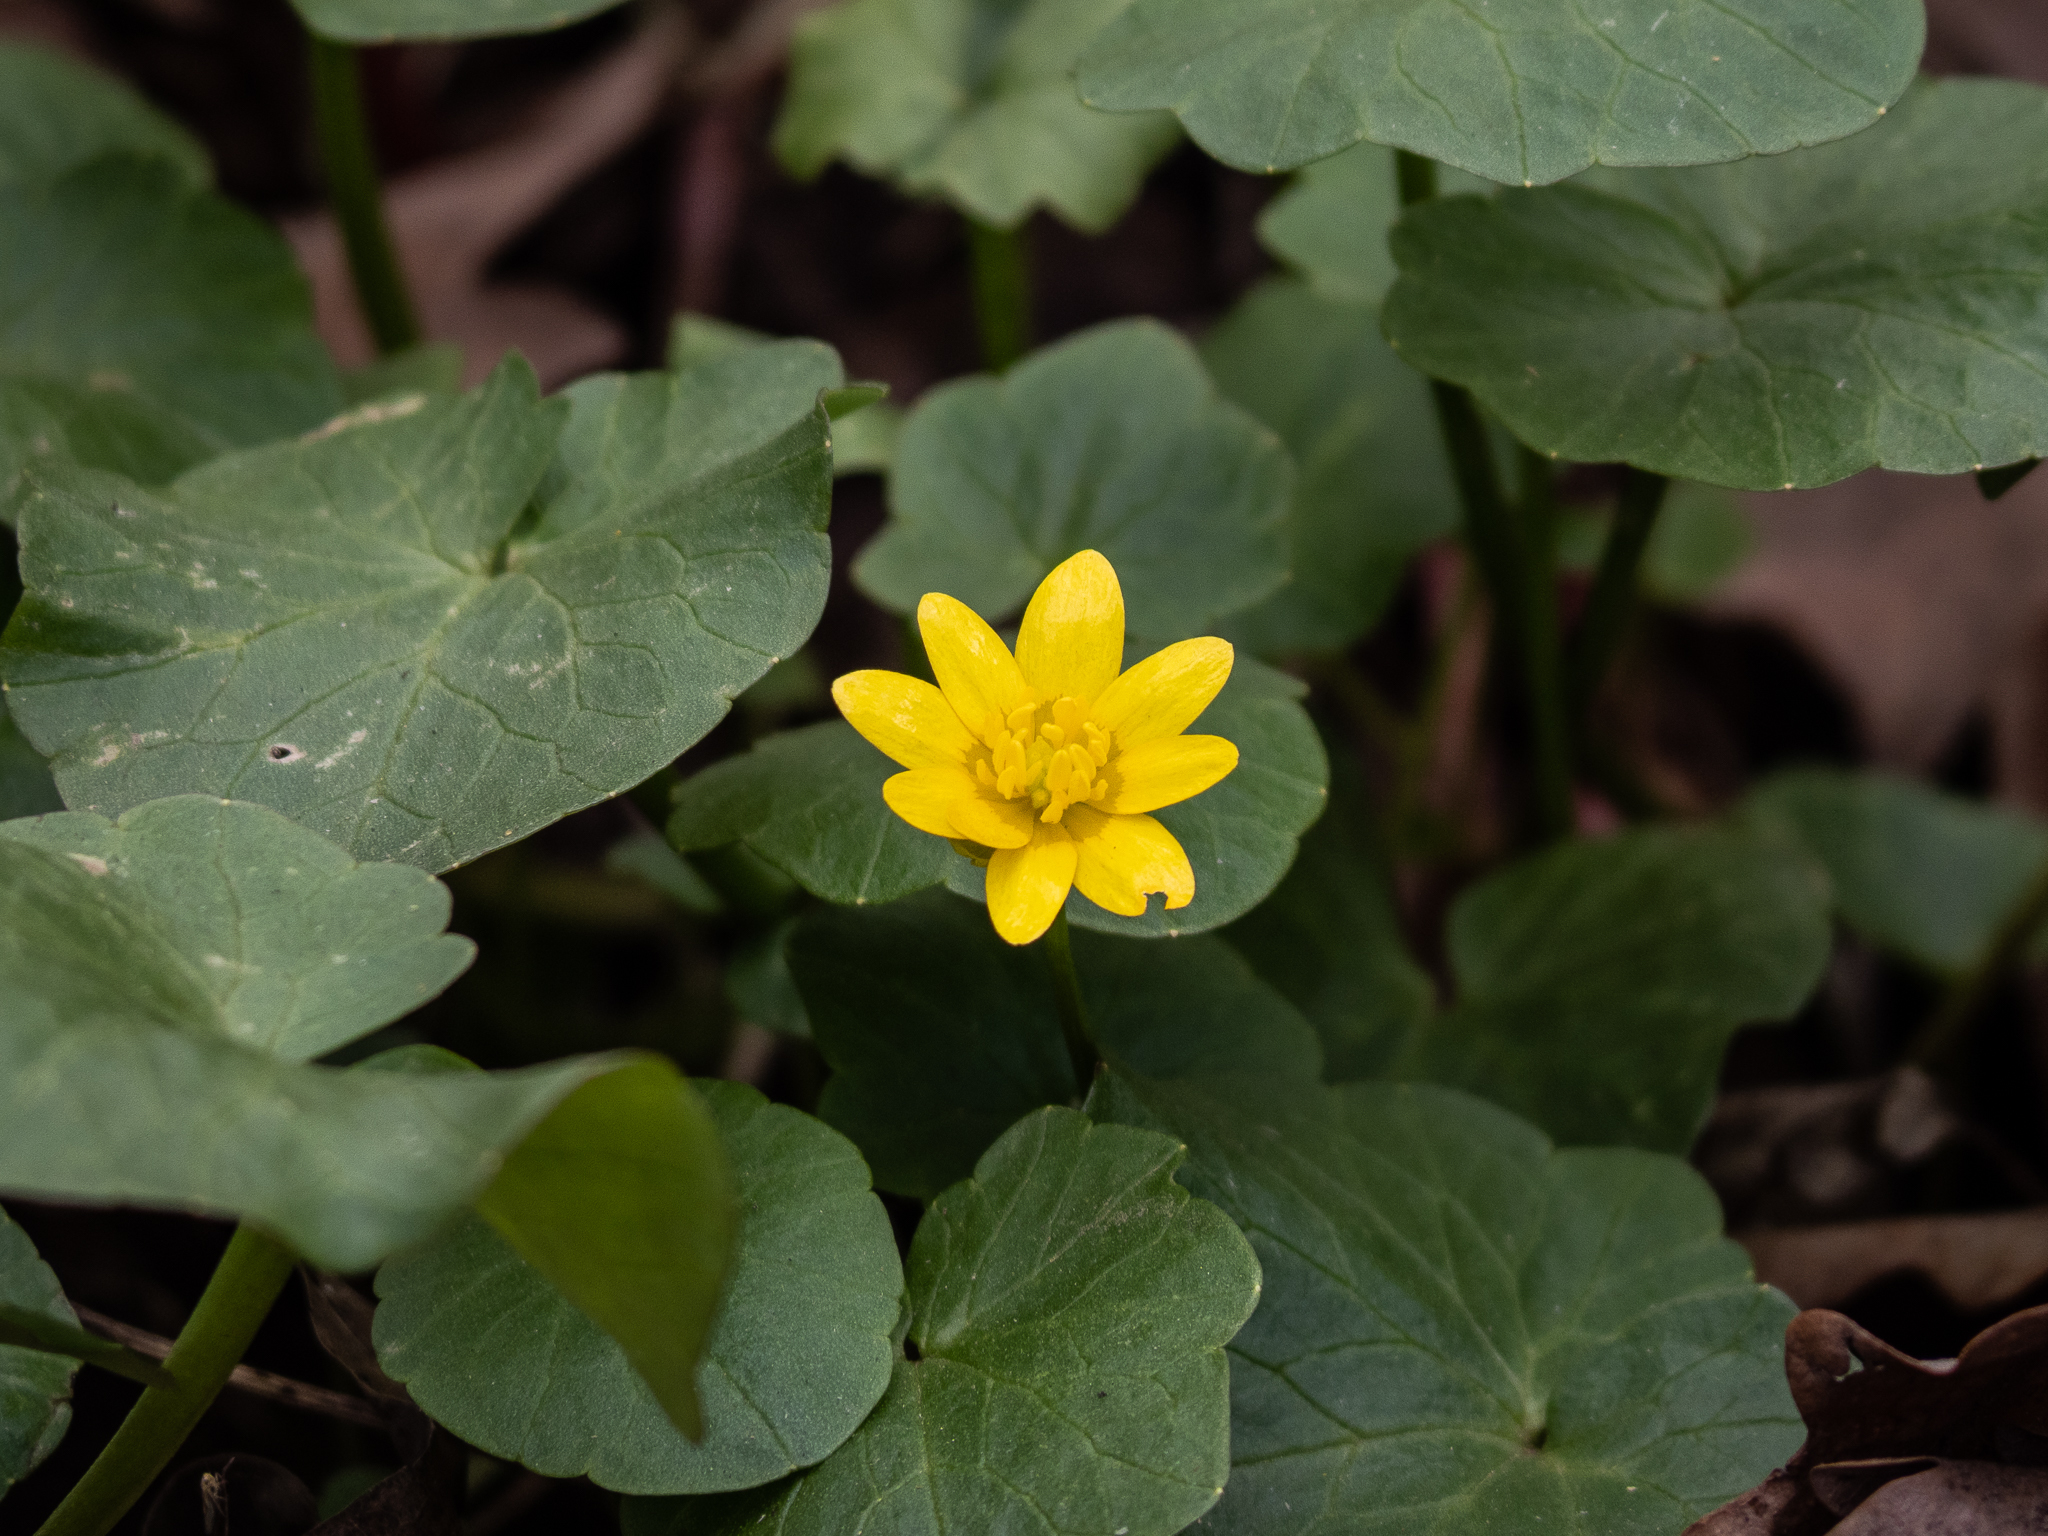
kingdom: Plantae
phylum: Tracheophyta
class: Magnoliopsida
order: Ranunculales
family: Ranunculaceae
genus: Ficaria
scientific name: Ficaria verna
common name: Lesser celandine
